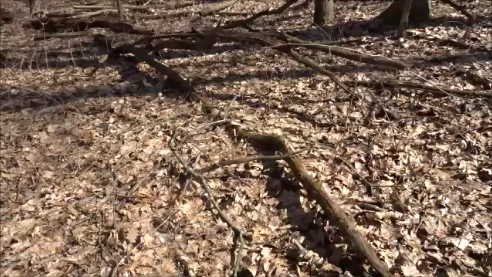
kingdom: Animalia
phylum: Chordata
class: Amphibia
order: Anura
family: Hylidae
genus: Pseudacris
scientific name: Pseudacris crucifer
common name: Spring peeper
